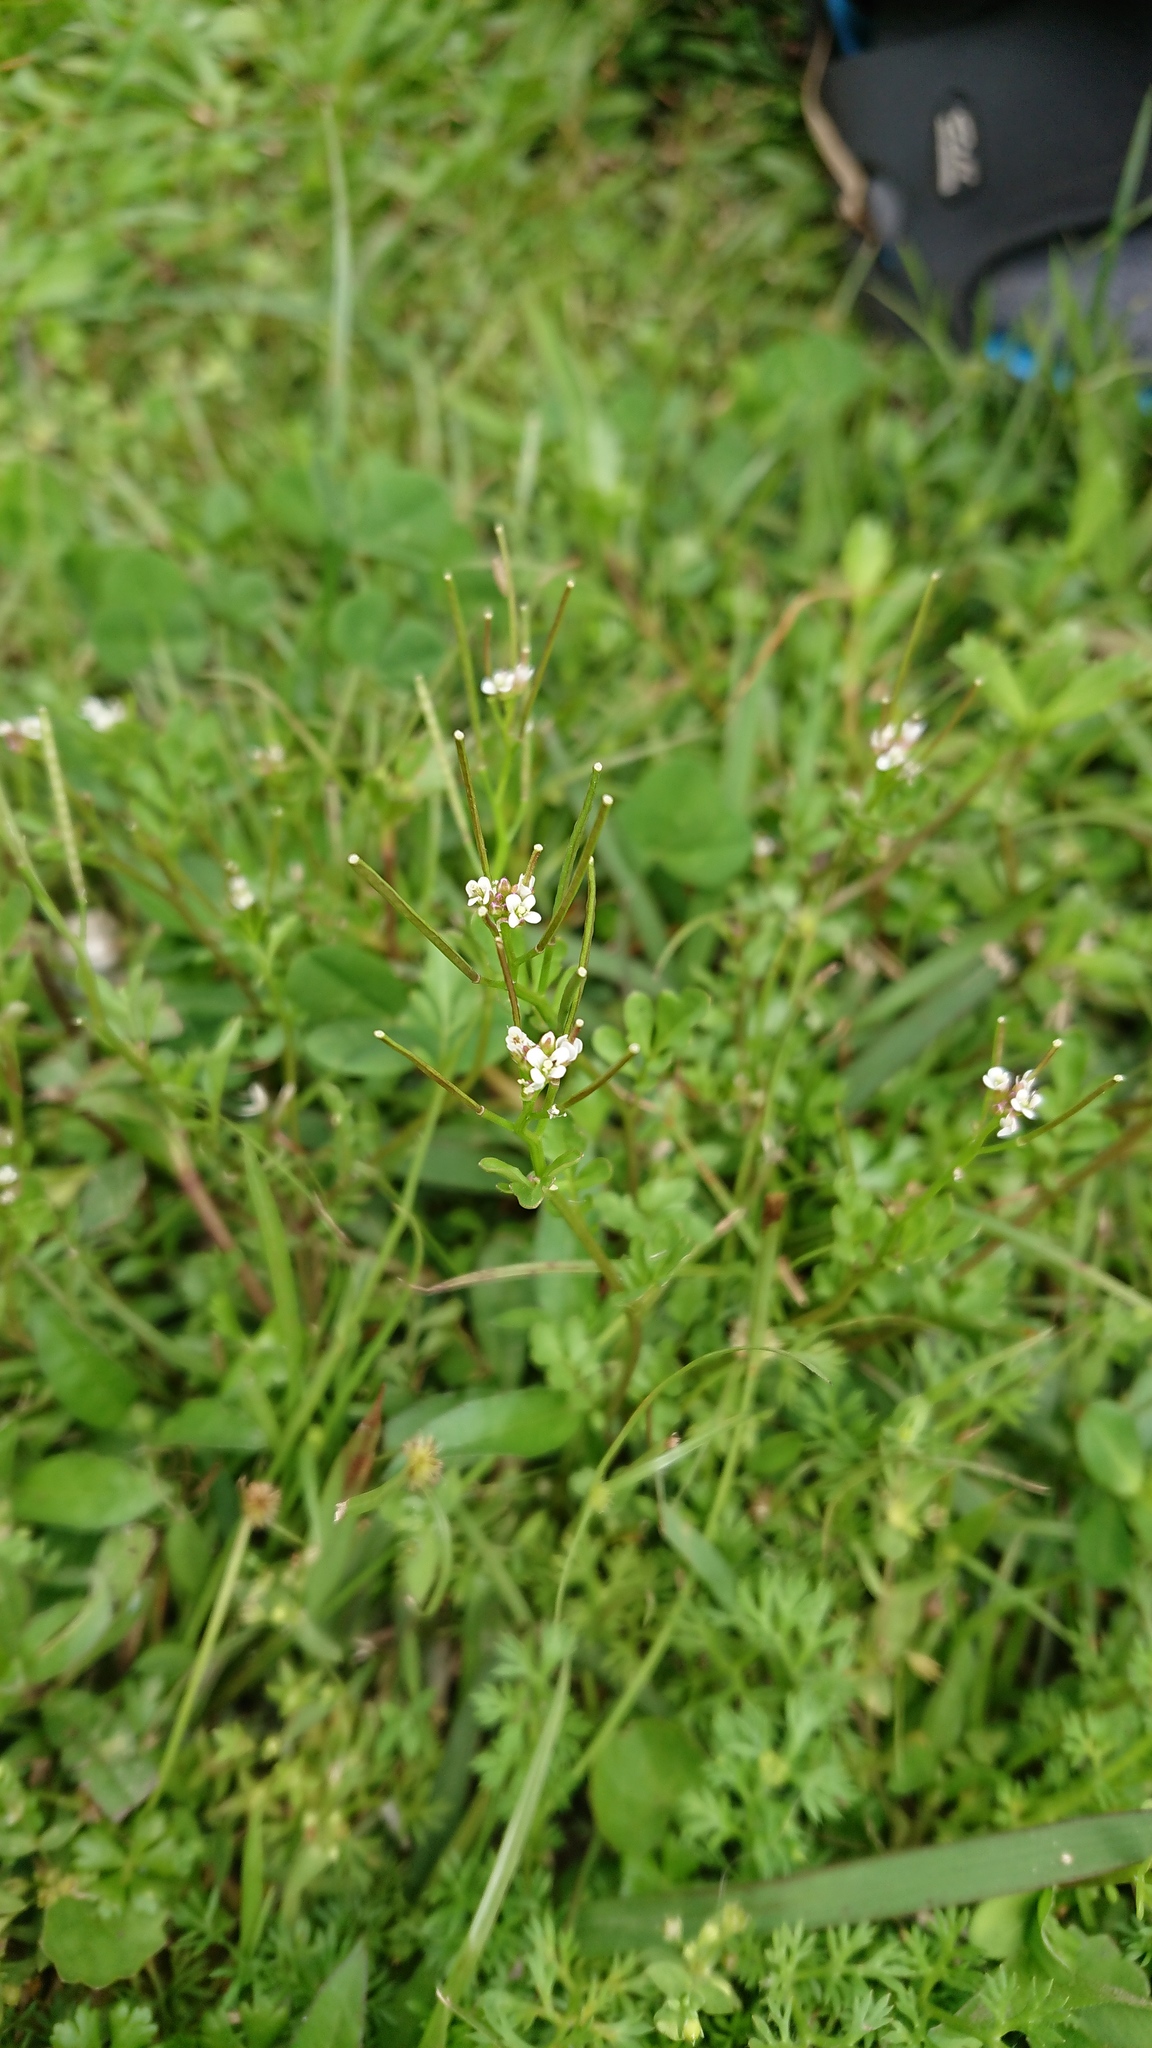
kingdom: Plantae
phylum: Tracheophyta
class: Magnoliopsida
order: Brassicales
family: Brassicaceae
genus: Cardamine
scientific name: Cardamine flexuosa
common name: Woodland bittercress
